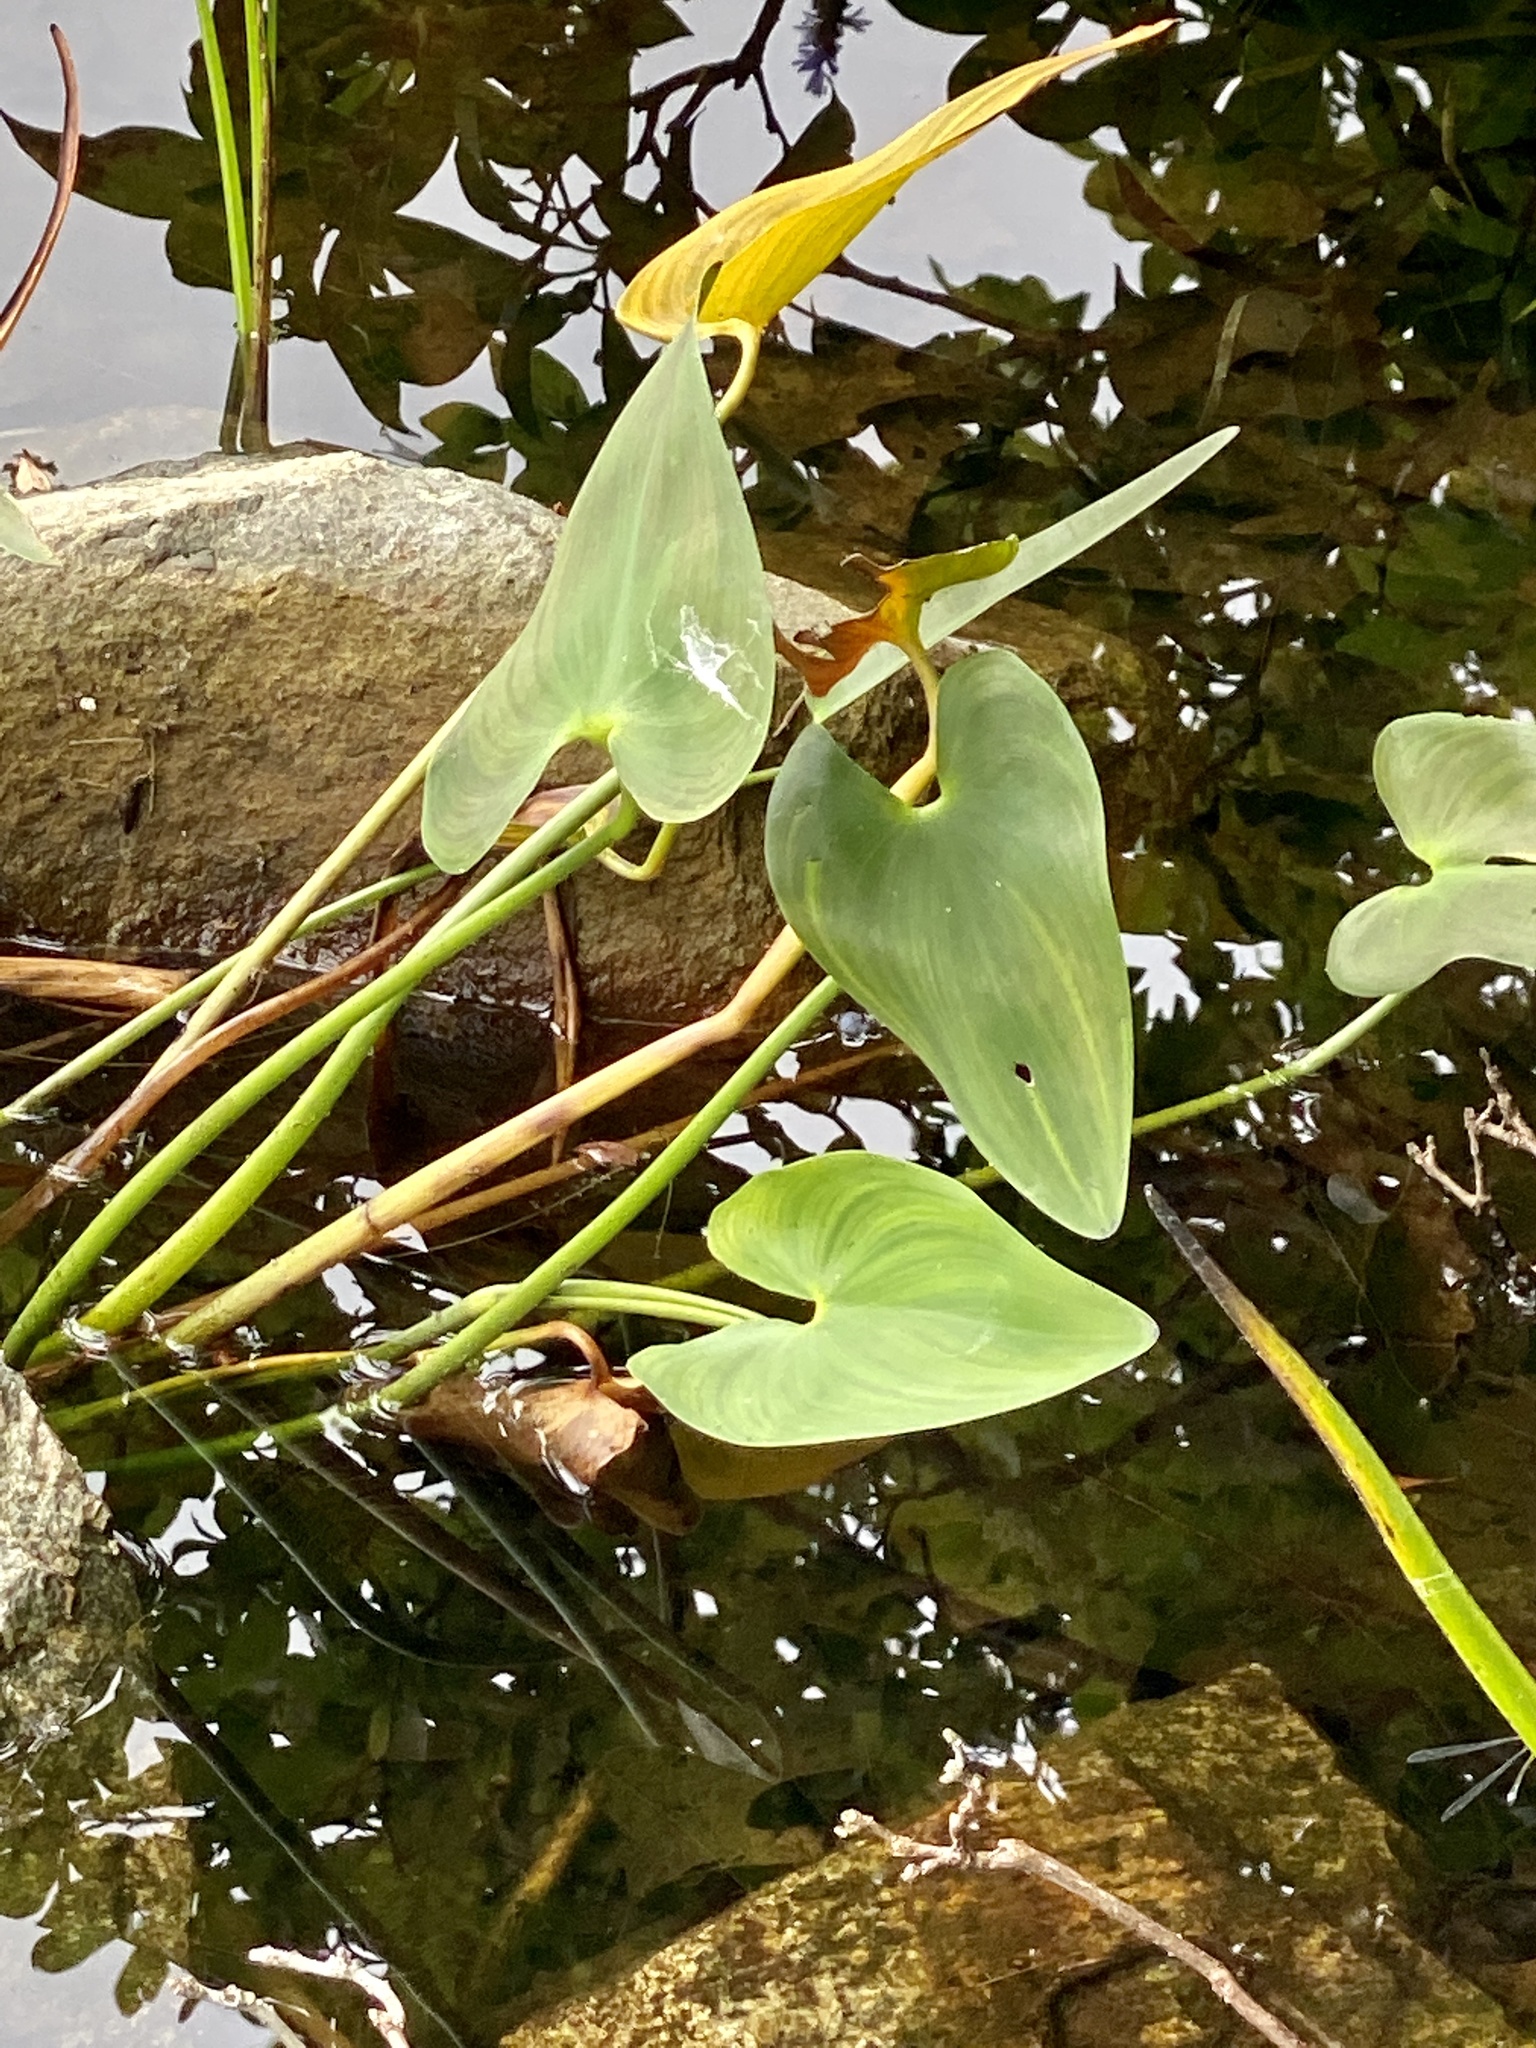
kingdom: Plantae
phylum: Tracheophyta
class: Liliopsida
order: Commelinales
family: Pontederiaceae
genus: Pontederia
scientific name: Pontederia cordata
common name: Pickerelweed
